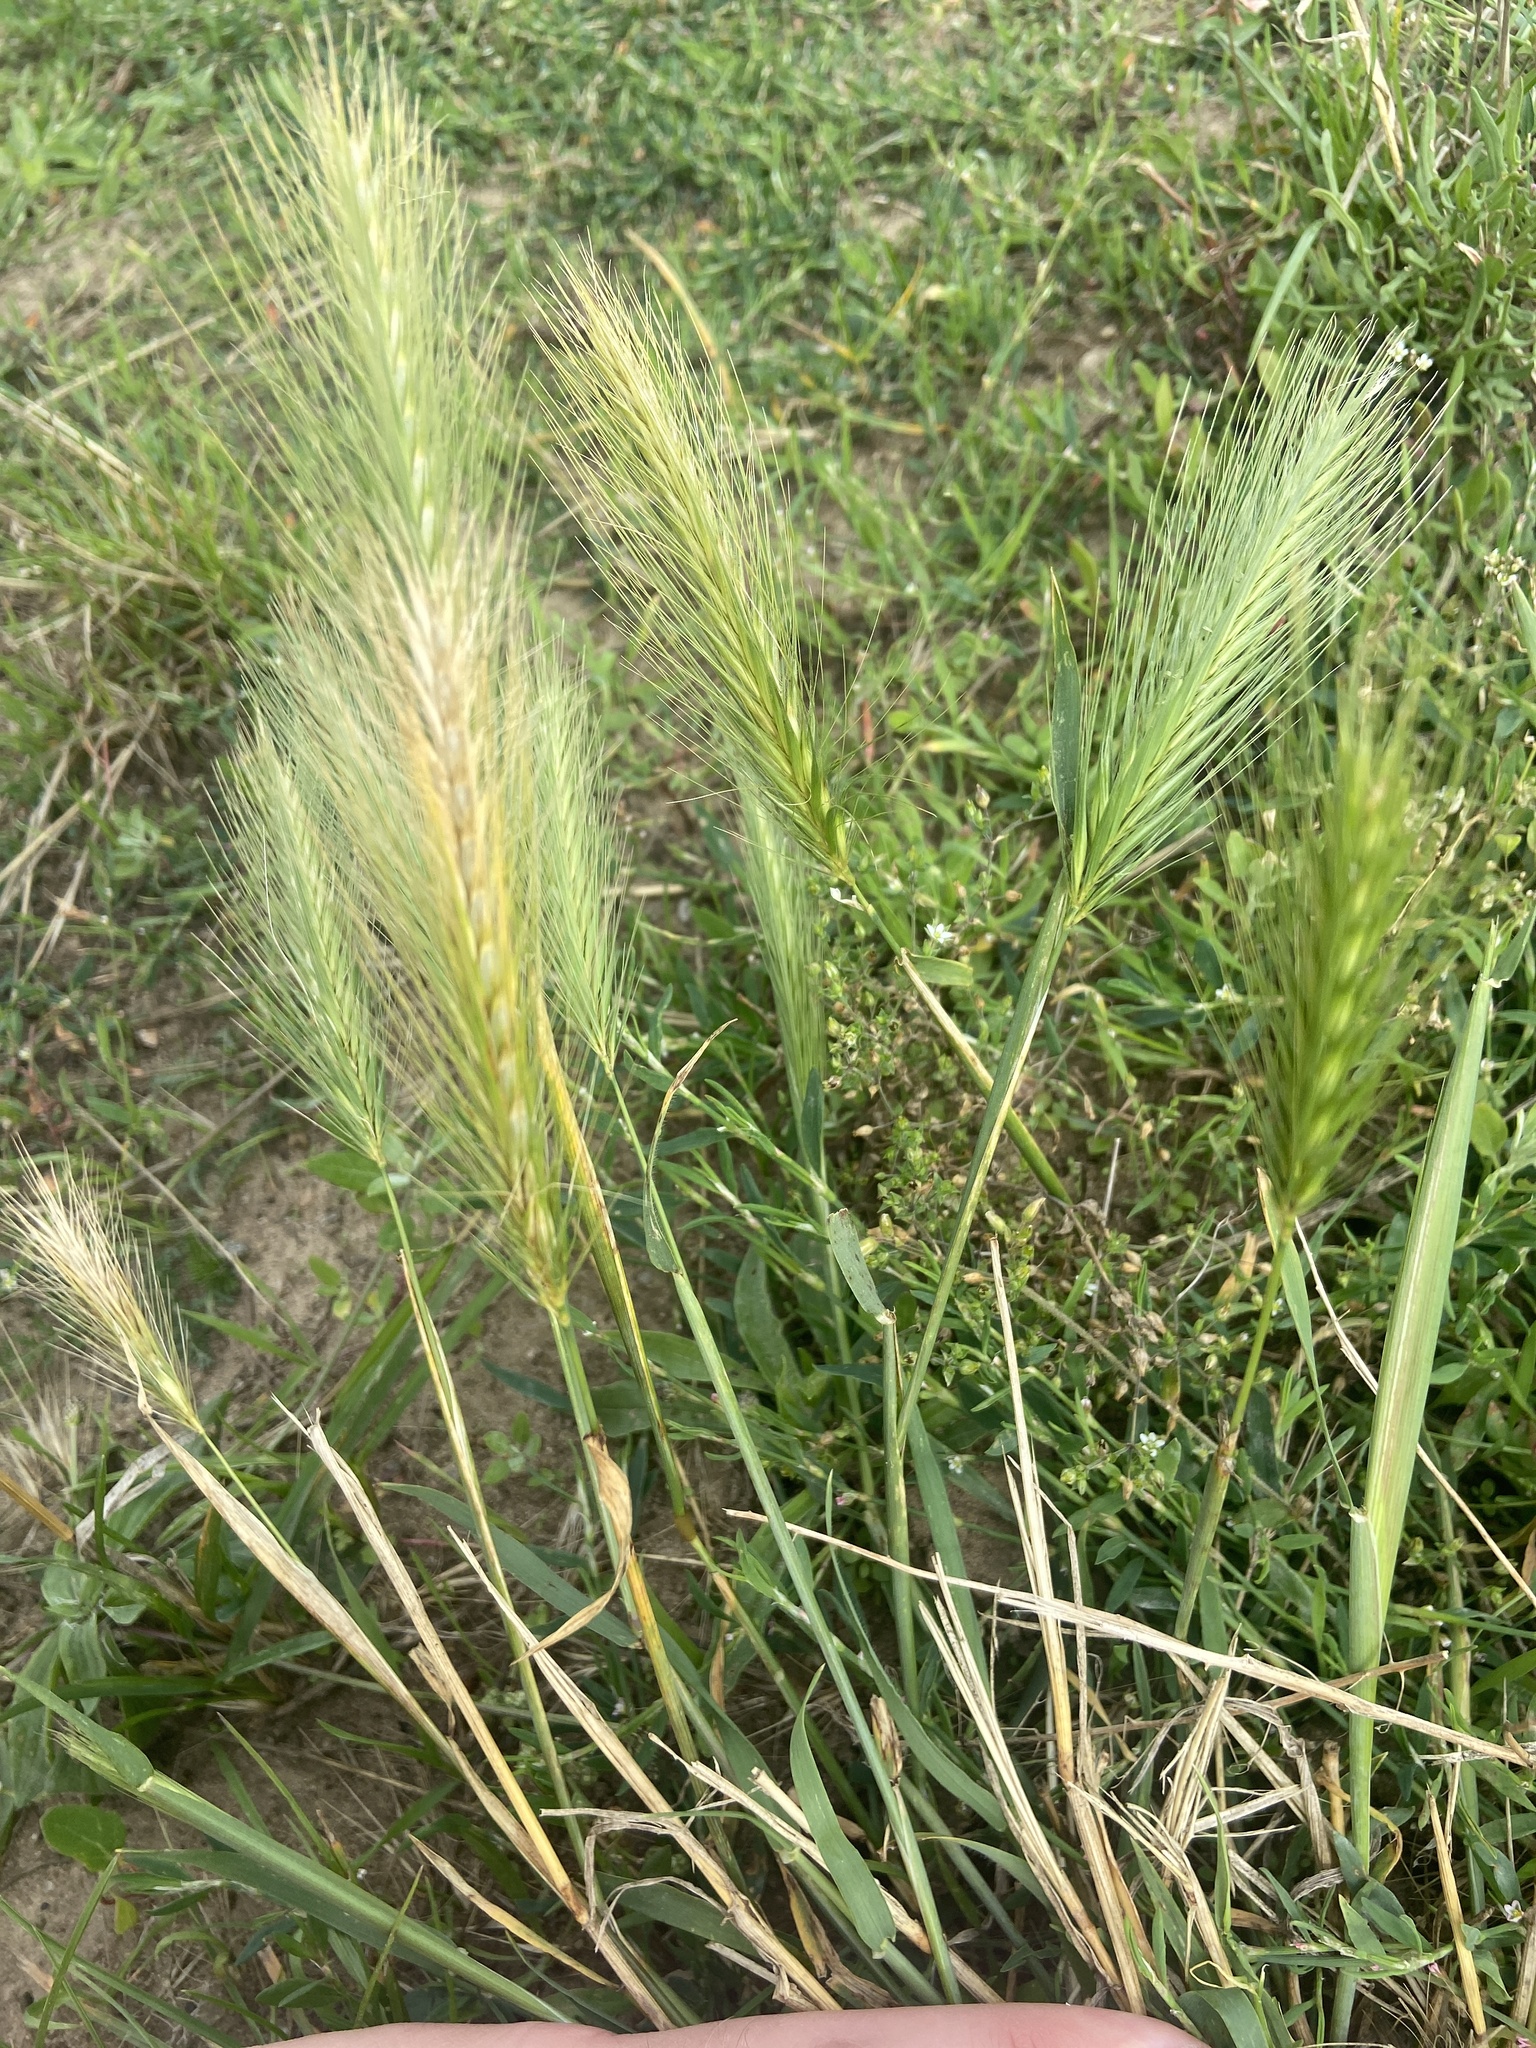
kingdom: Plantae
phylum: Tracheophyta
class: Liliopsida
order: Poales
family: Poaceae
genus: Hordeum
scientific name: Hordeum murinum
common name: Wall barley
